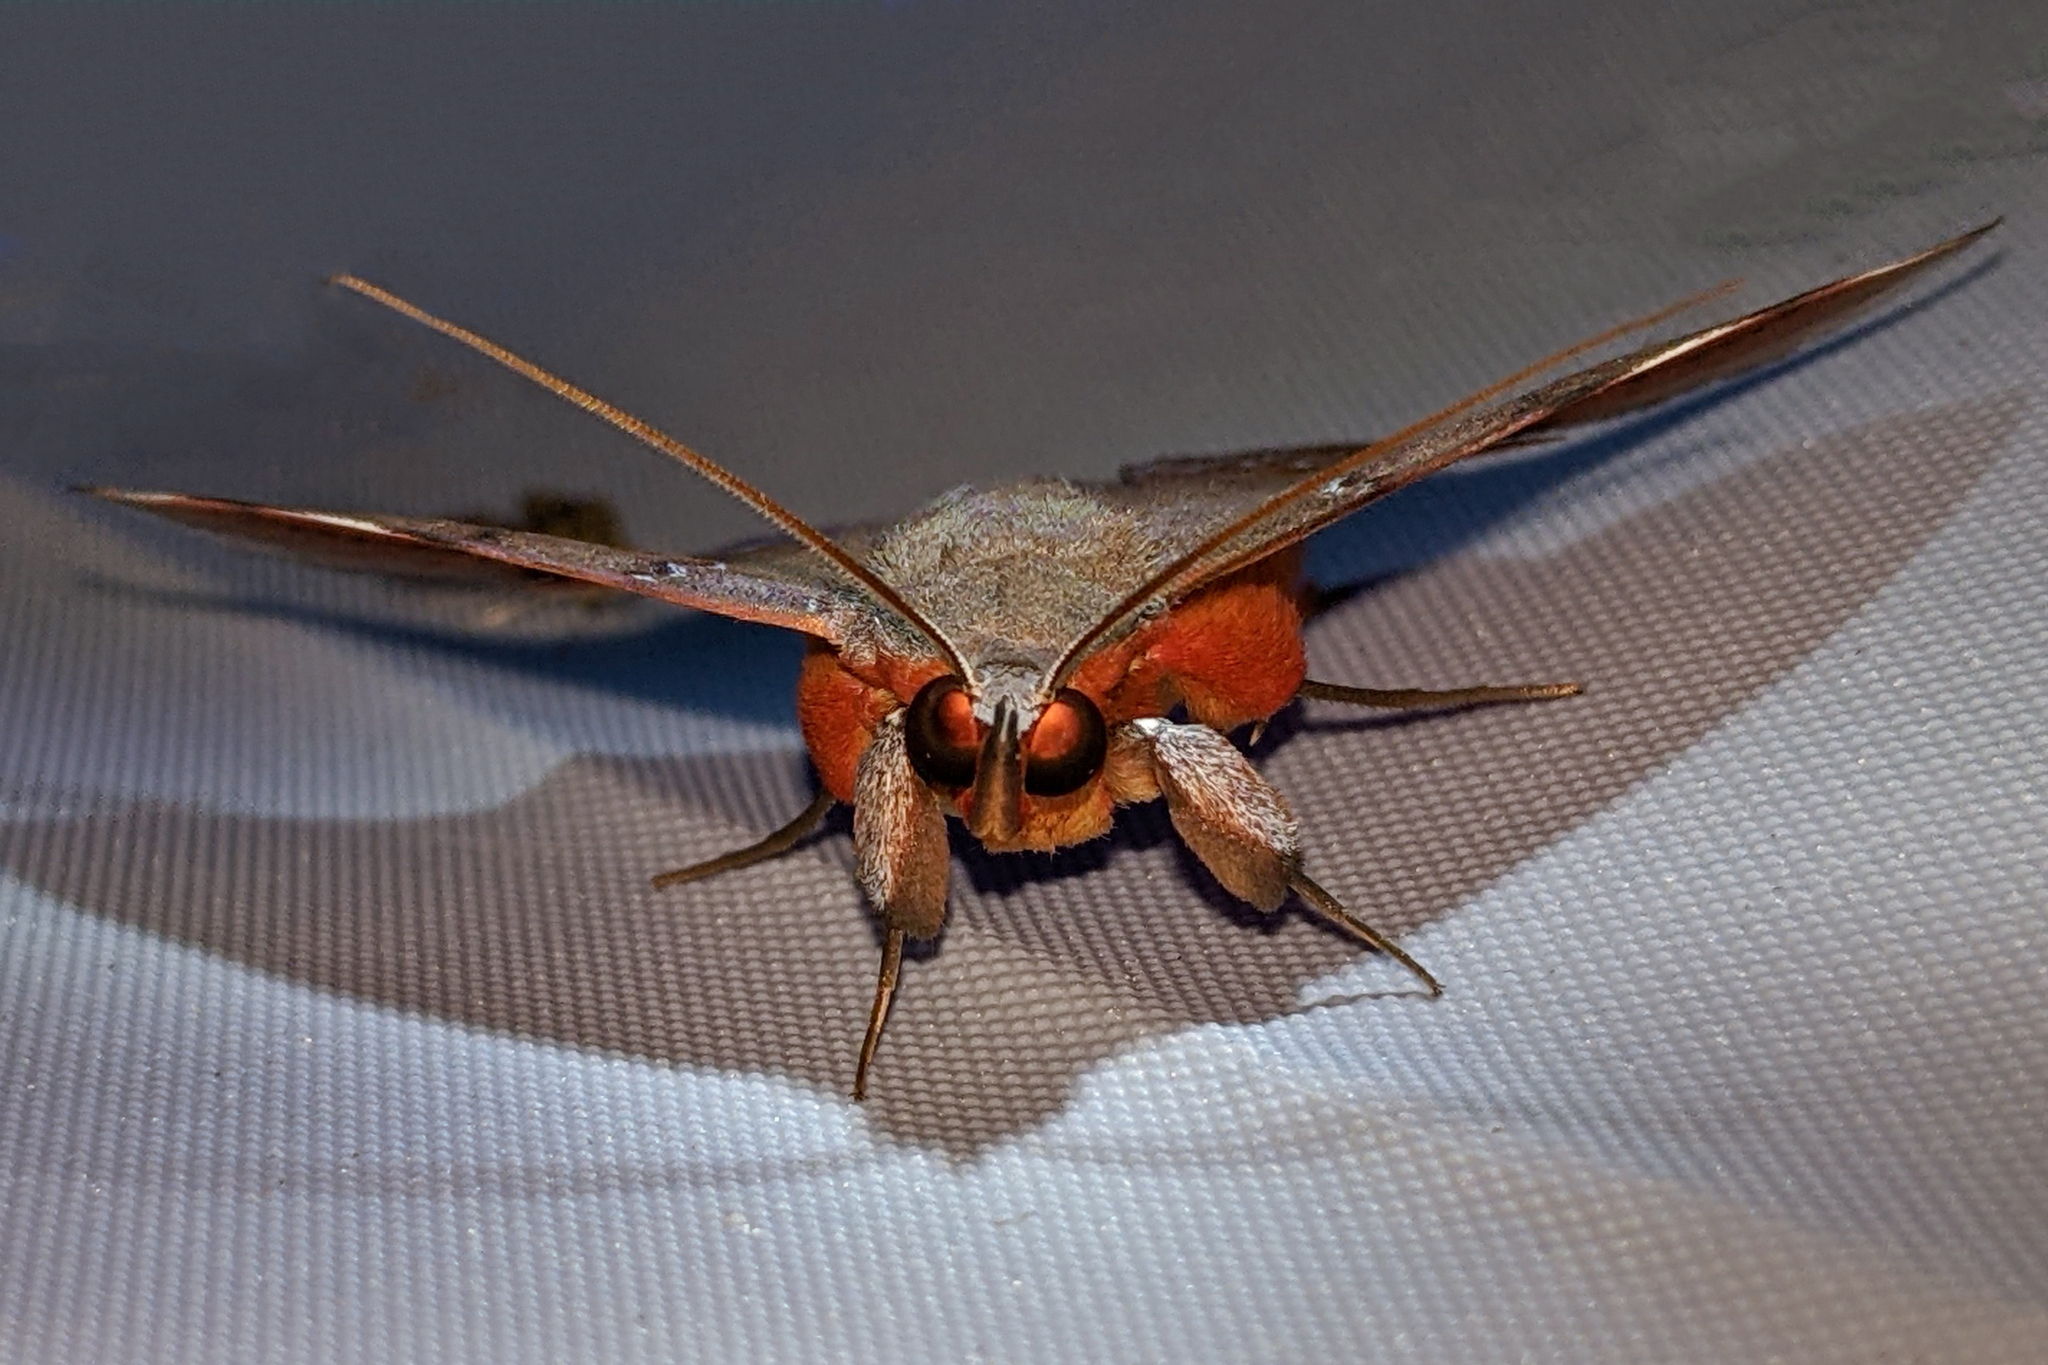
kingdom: Animalia
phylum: Arthropoda
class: Insecta
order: Lepidoptera
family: Erebidae
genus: Argidia
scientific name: Argidia tomyris
